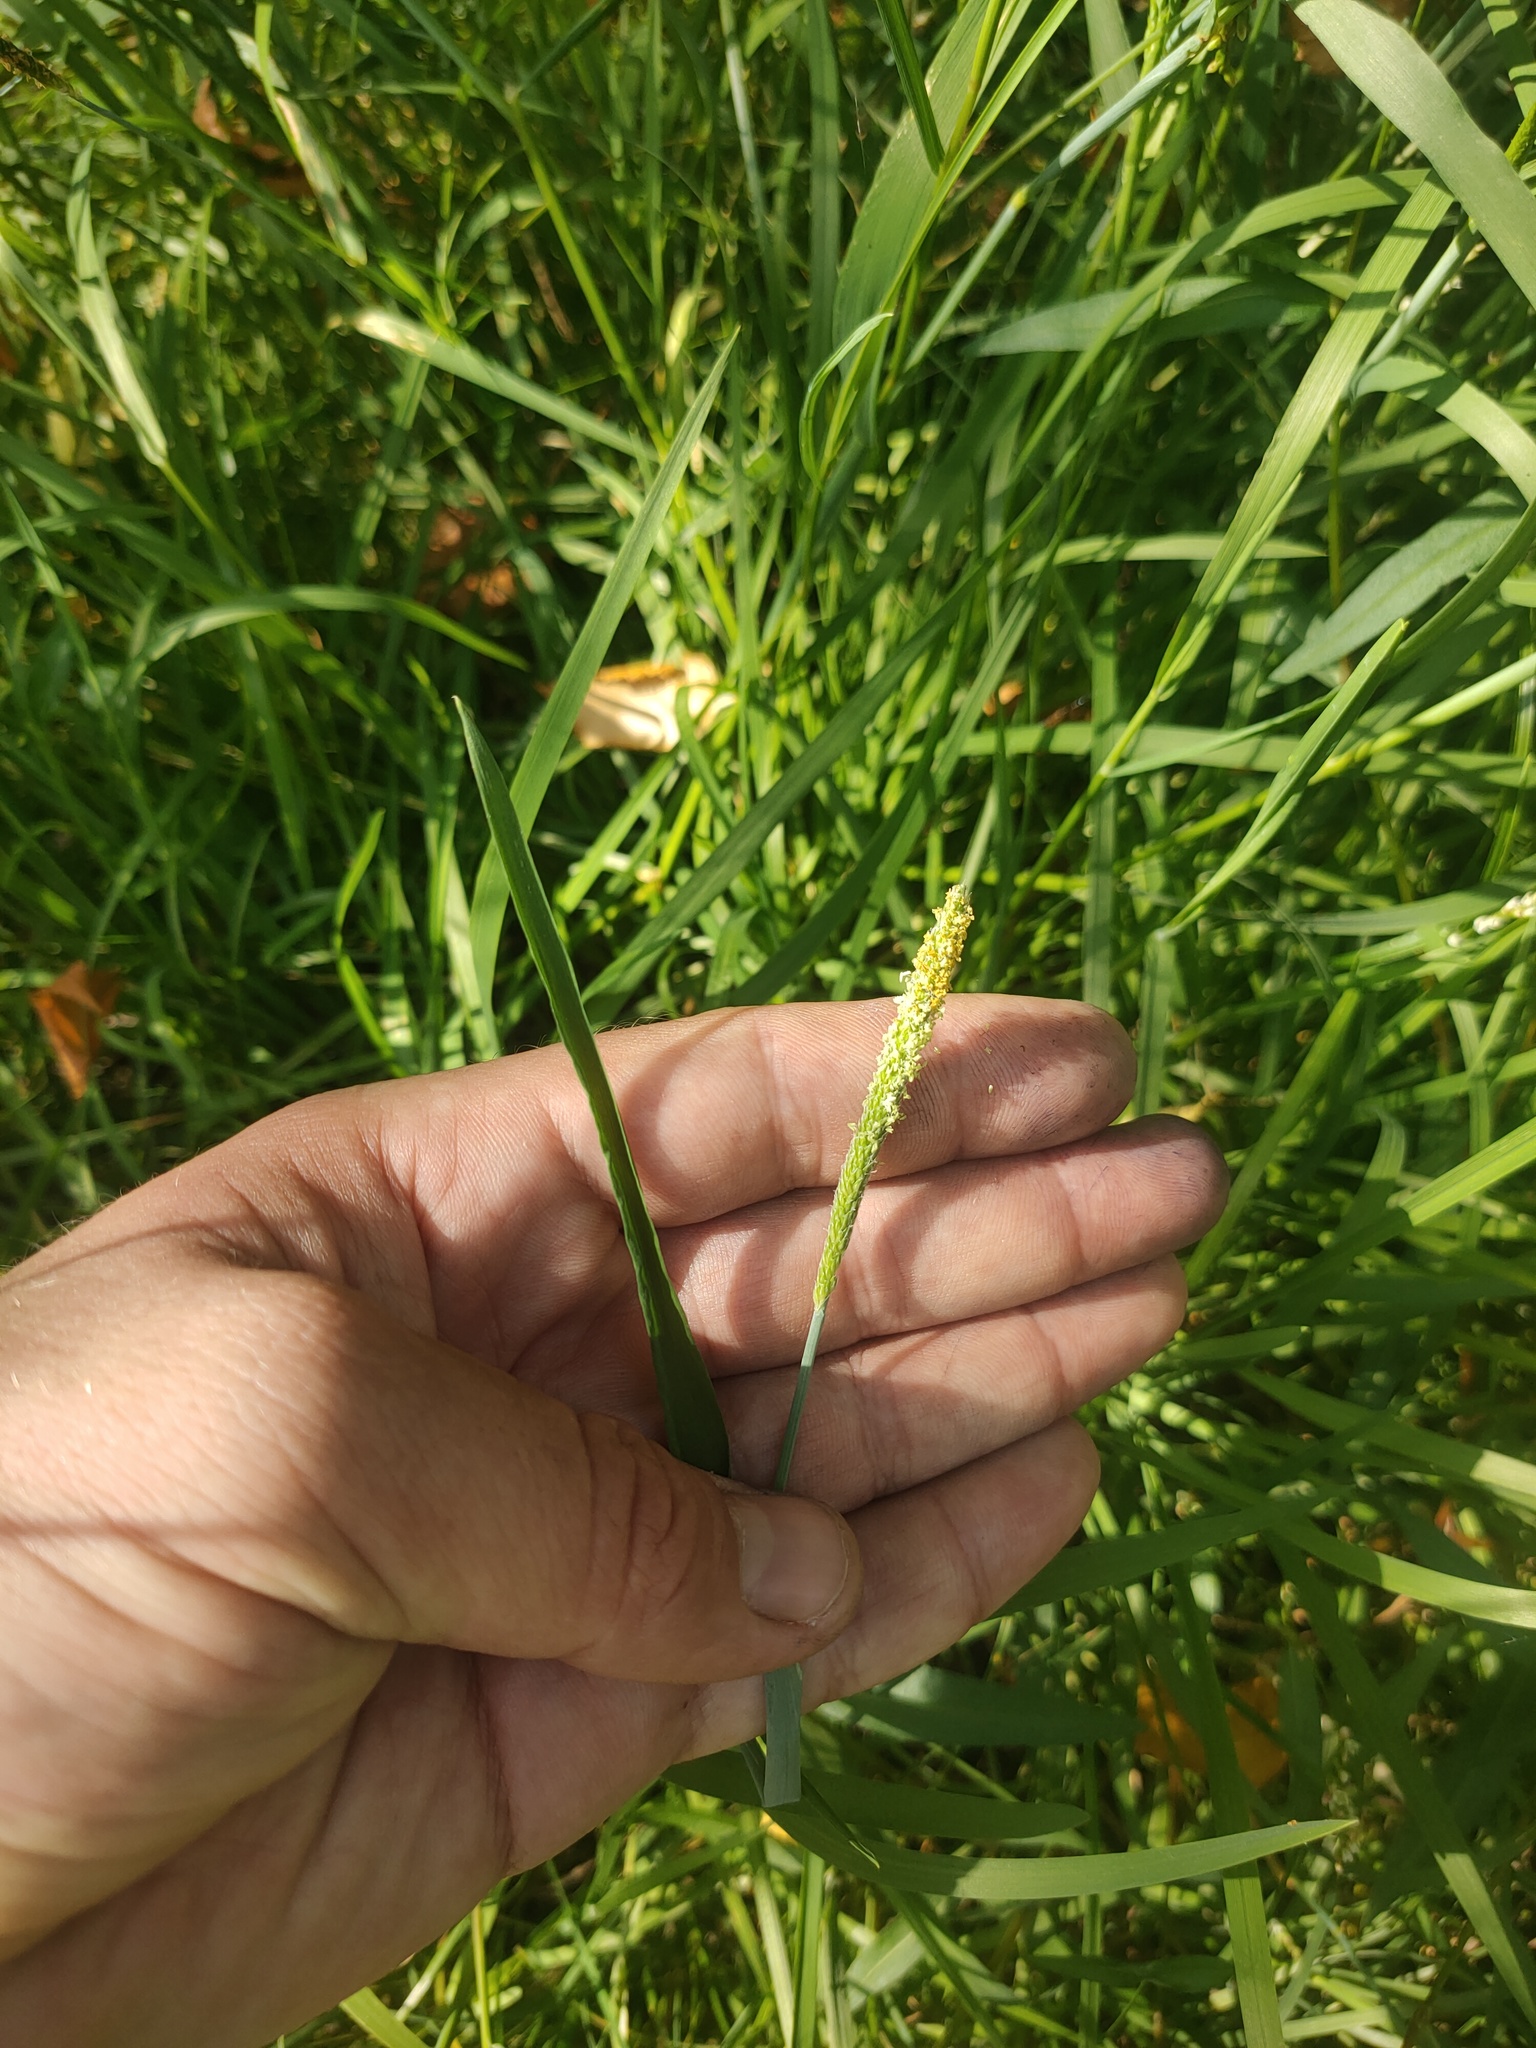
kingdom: Plantae
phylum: Tracheophyta
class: Liliopsida
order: Poales
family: Poaceae
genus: Alopecurus
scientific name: Alopecurus aequalis
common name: Orange foxtail
